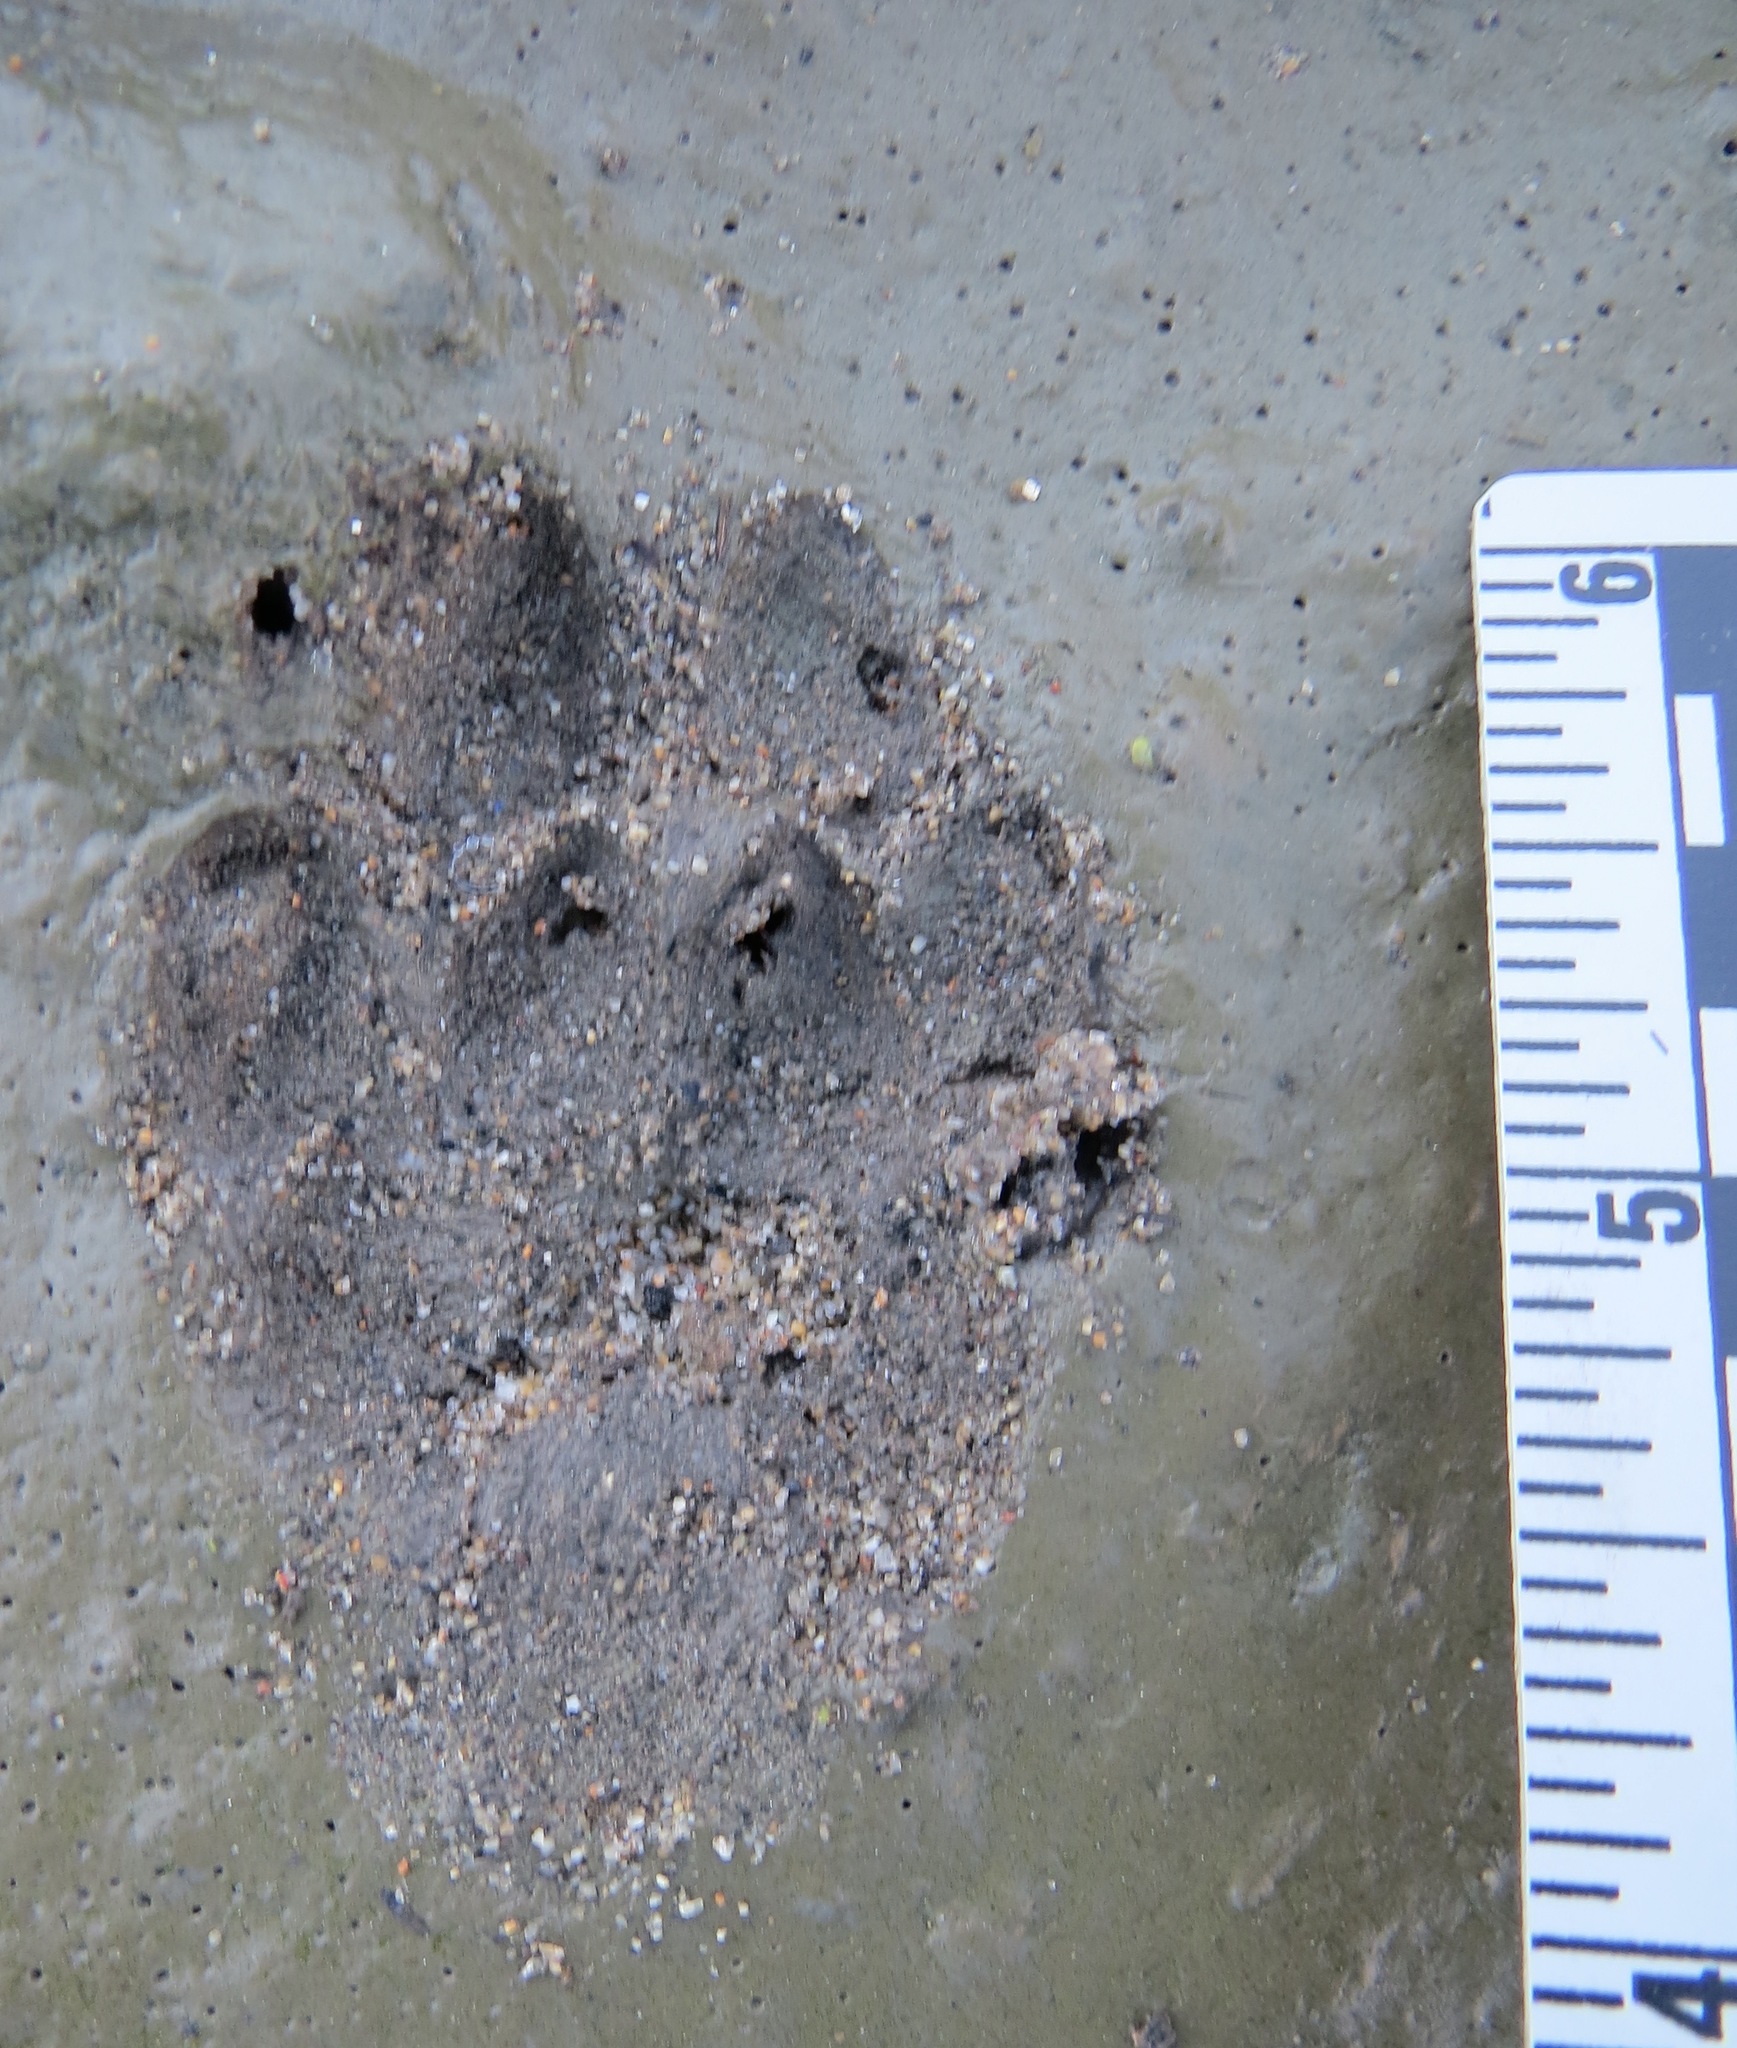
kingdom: Animalia
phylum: Chordata
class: Mammalia
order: Carnivora
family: Canidae
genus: Urocyon
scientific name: Urocyon cinereoargenteus
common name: Gray fox
